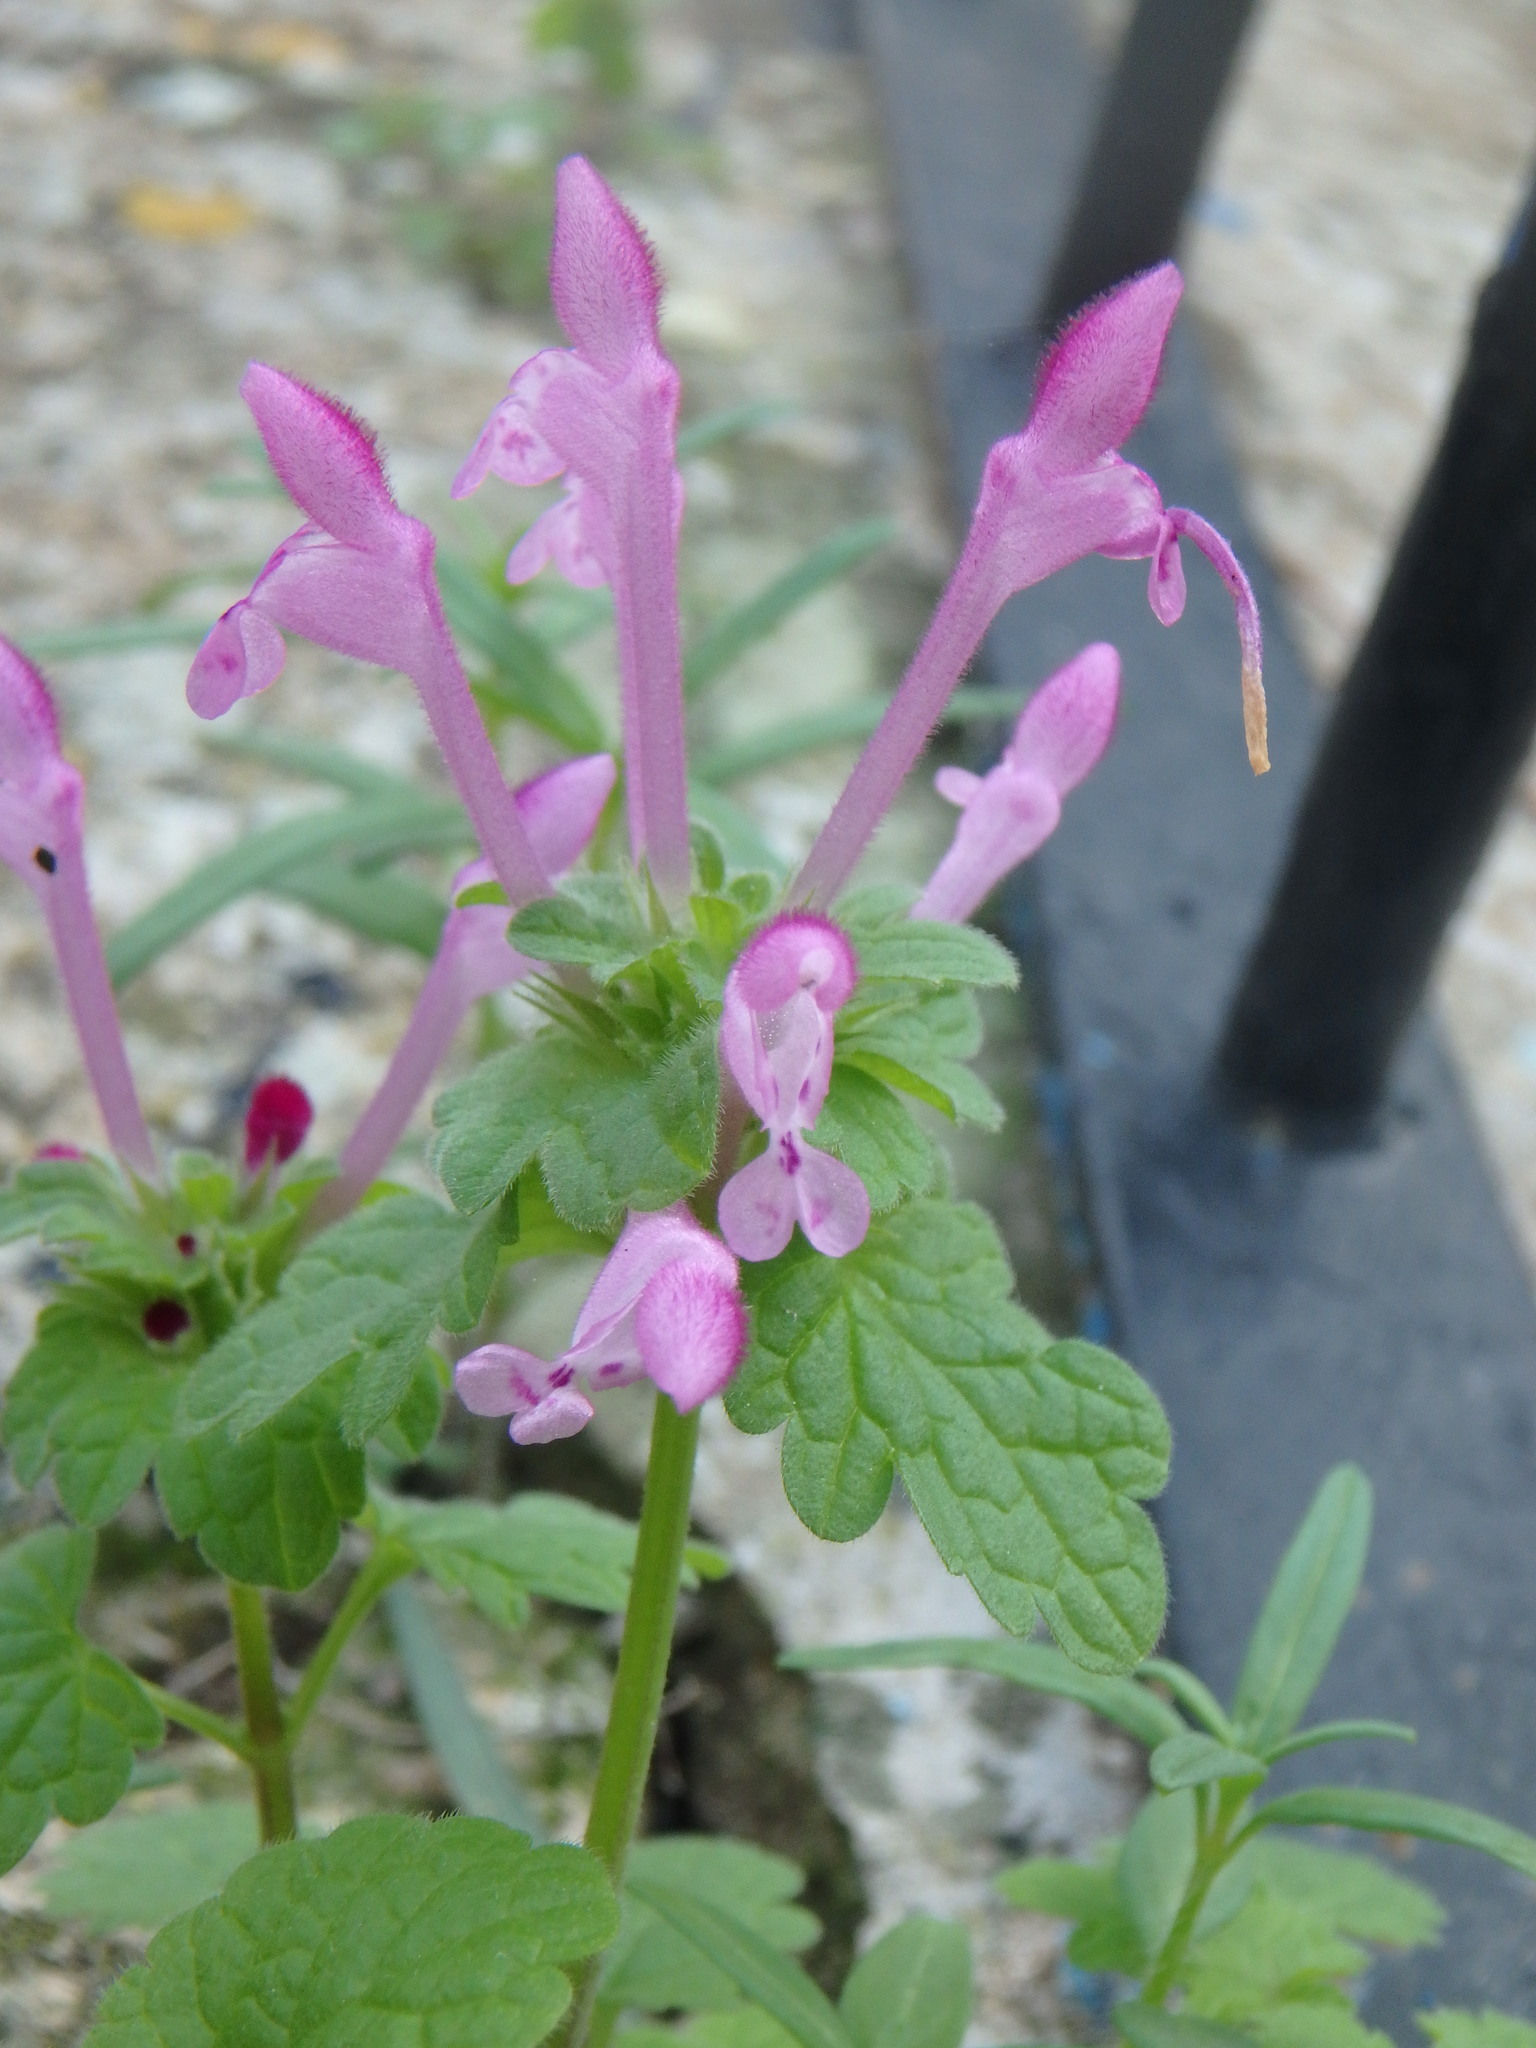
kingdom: Plantae
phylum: Tracheophyta
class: Magnoliopsida
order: Lamiales
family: Lamiaceae
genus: Lamium
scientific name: Lamium amplexicaule
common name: Henbit dead-nettle
